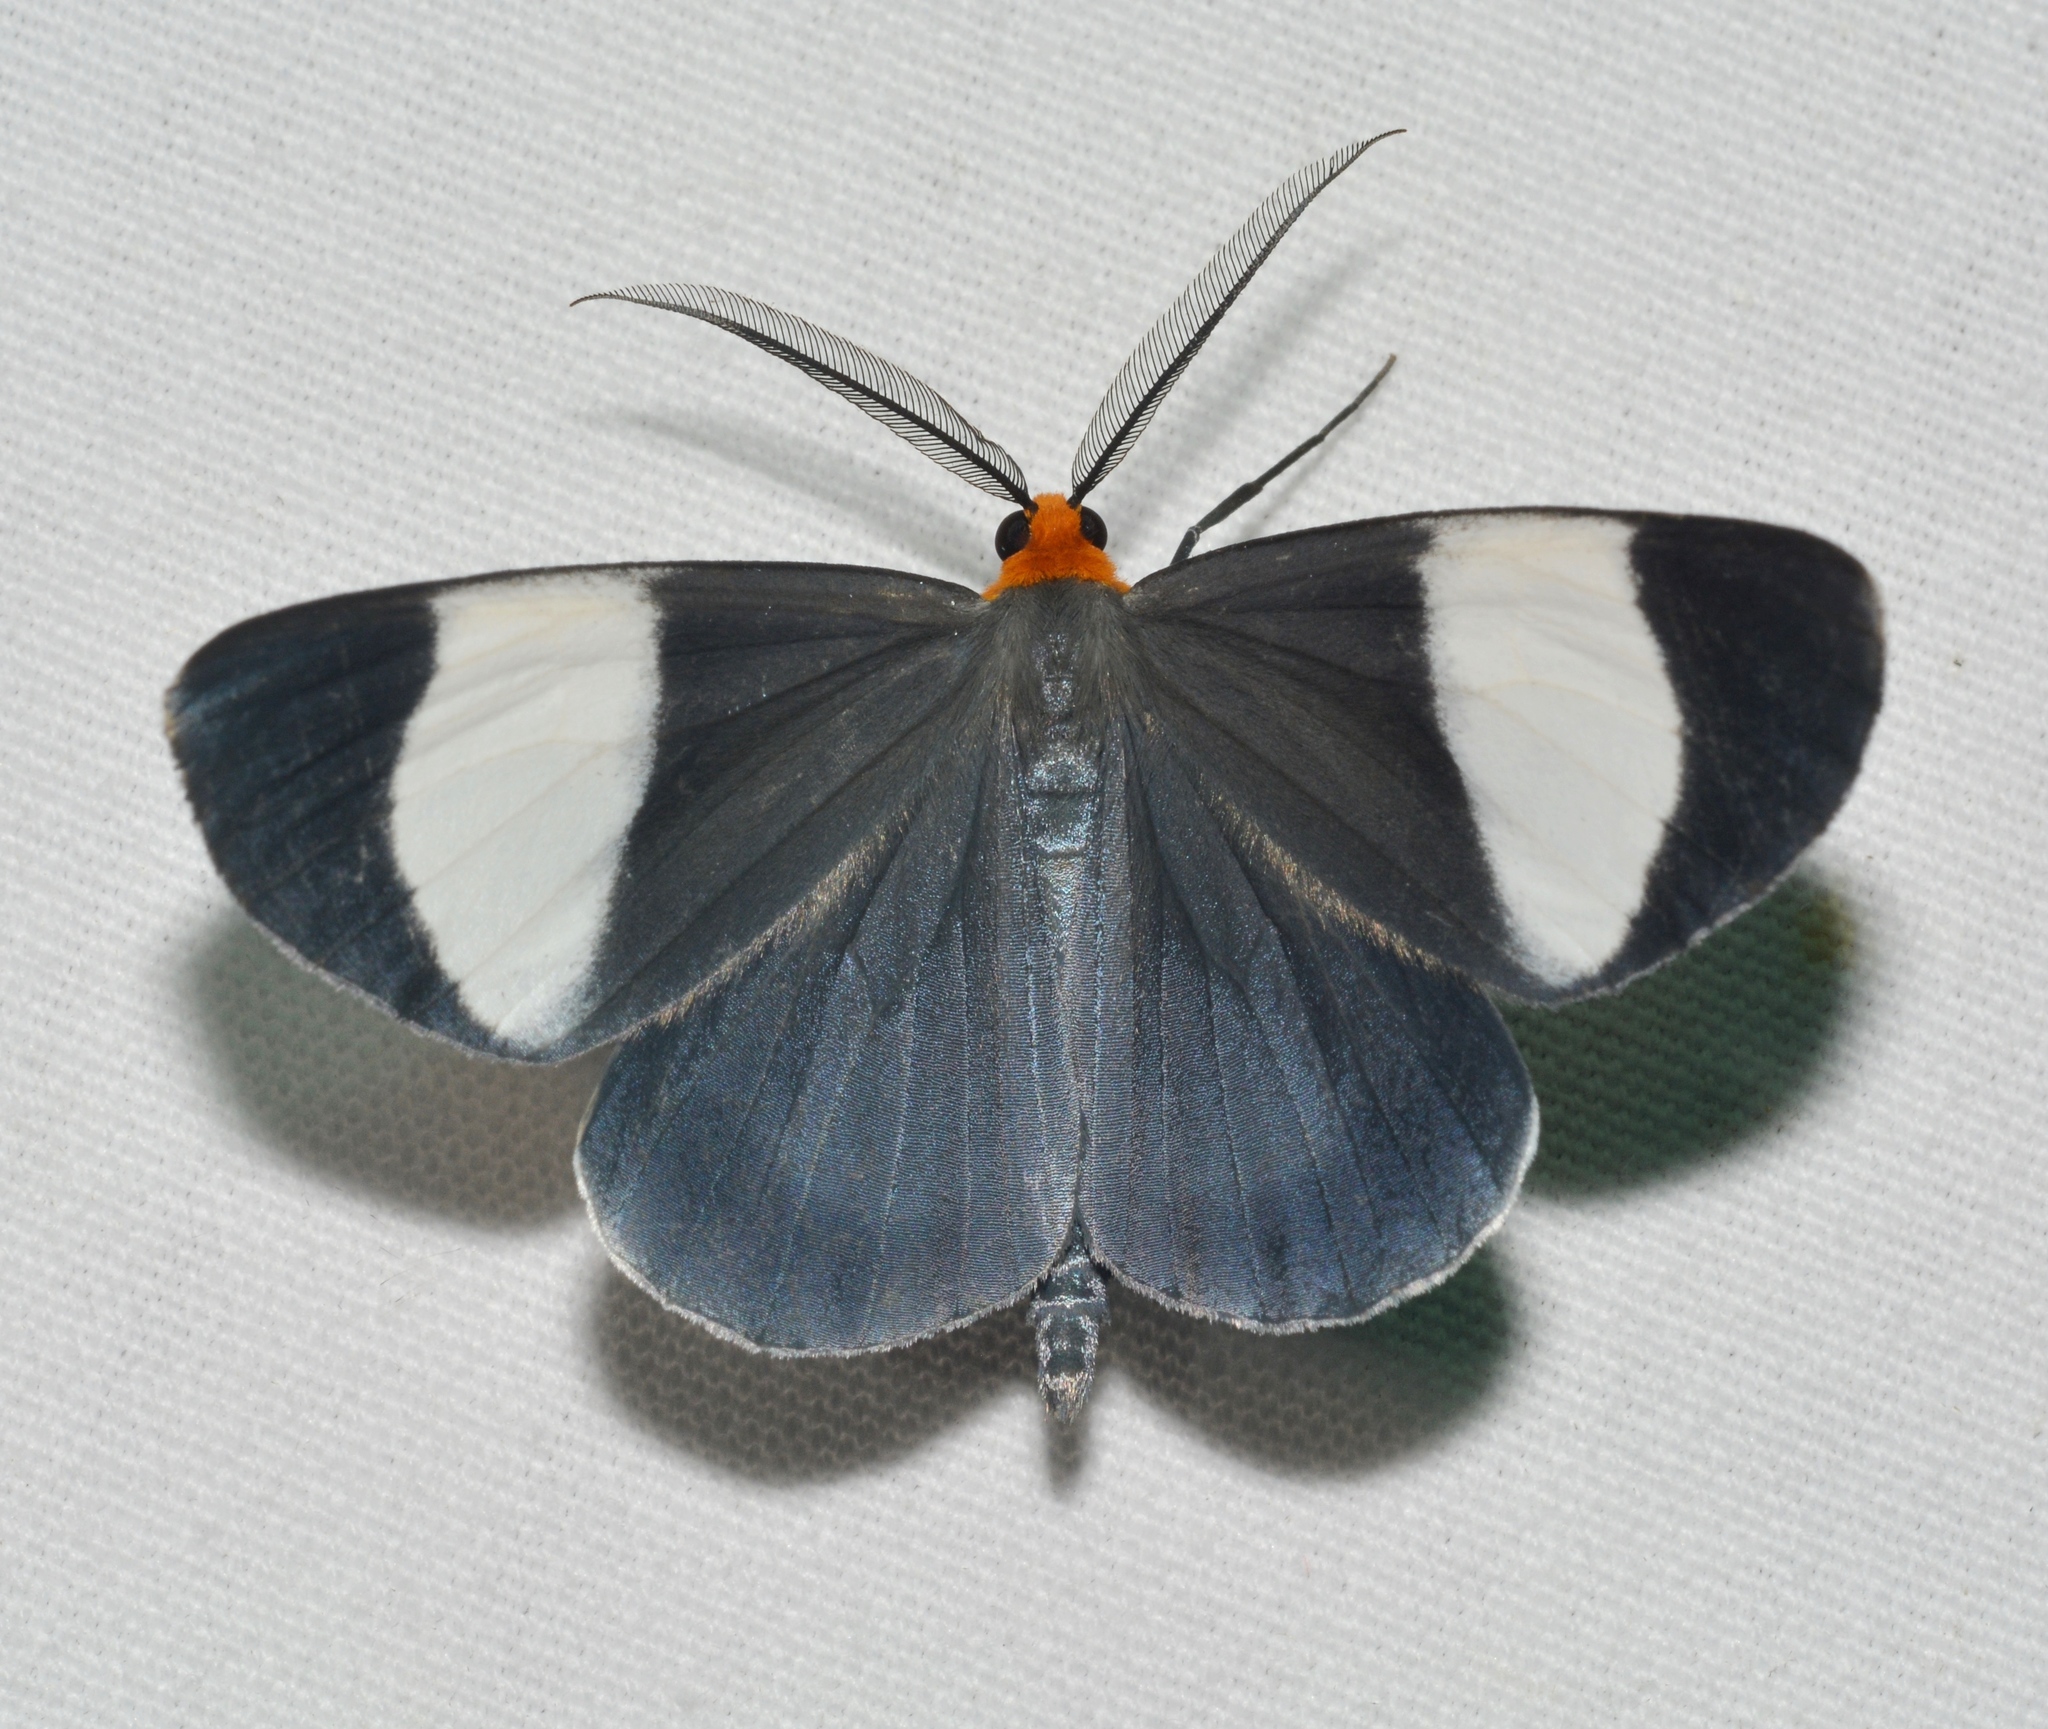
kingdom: Animalia
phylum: Arthropoda
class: Insecta
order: Lepidoptera
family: Geometridae
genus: Simena
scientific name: Simena luctifera
